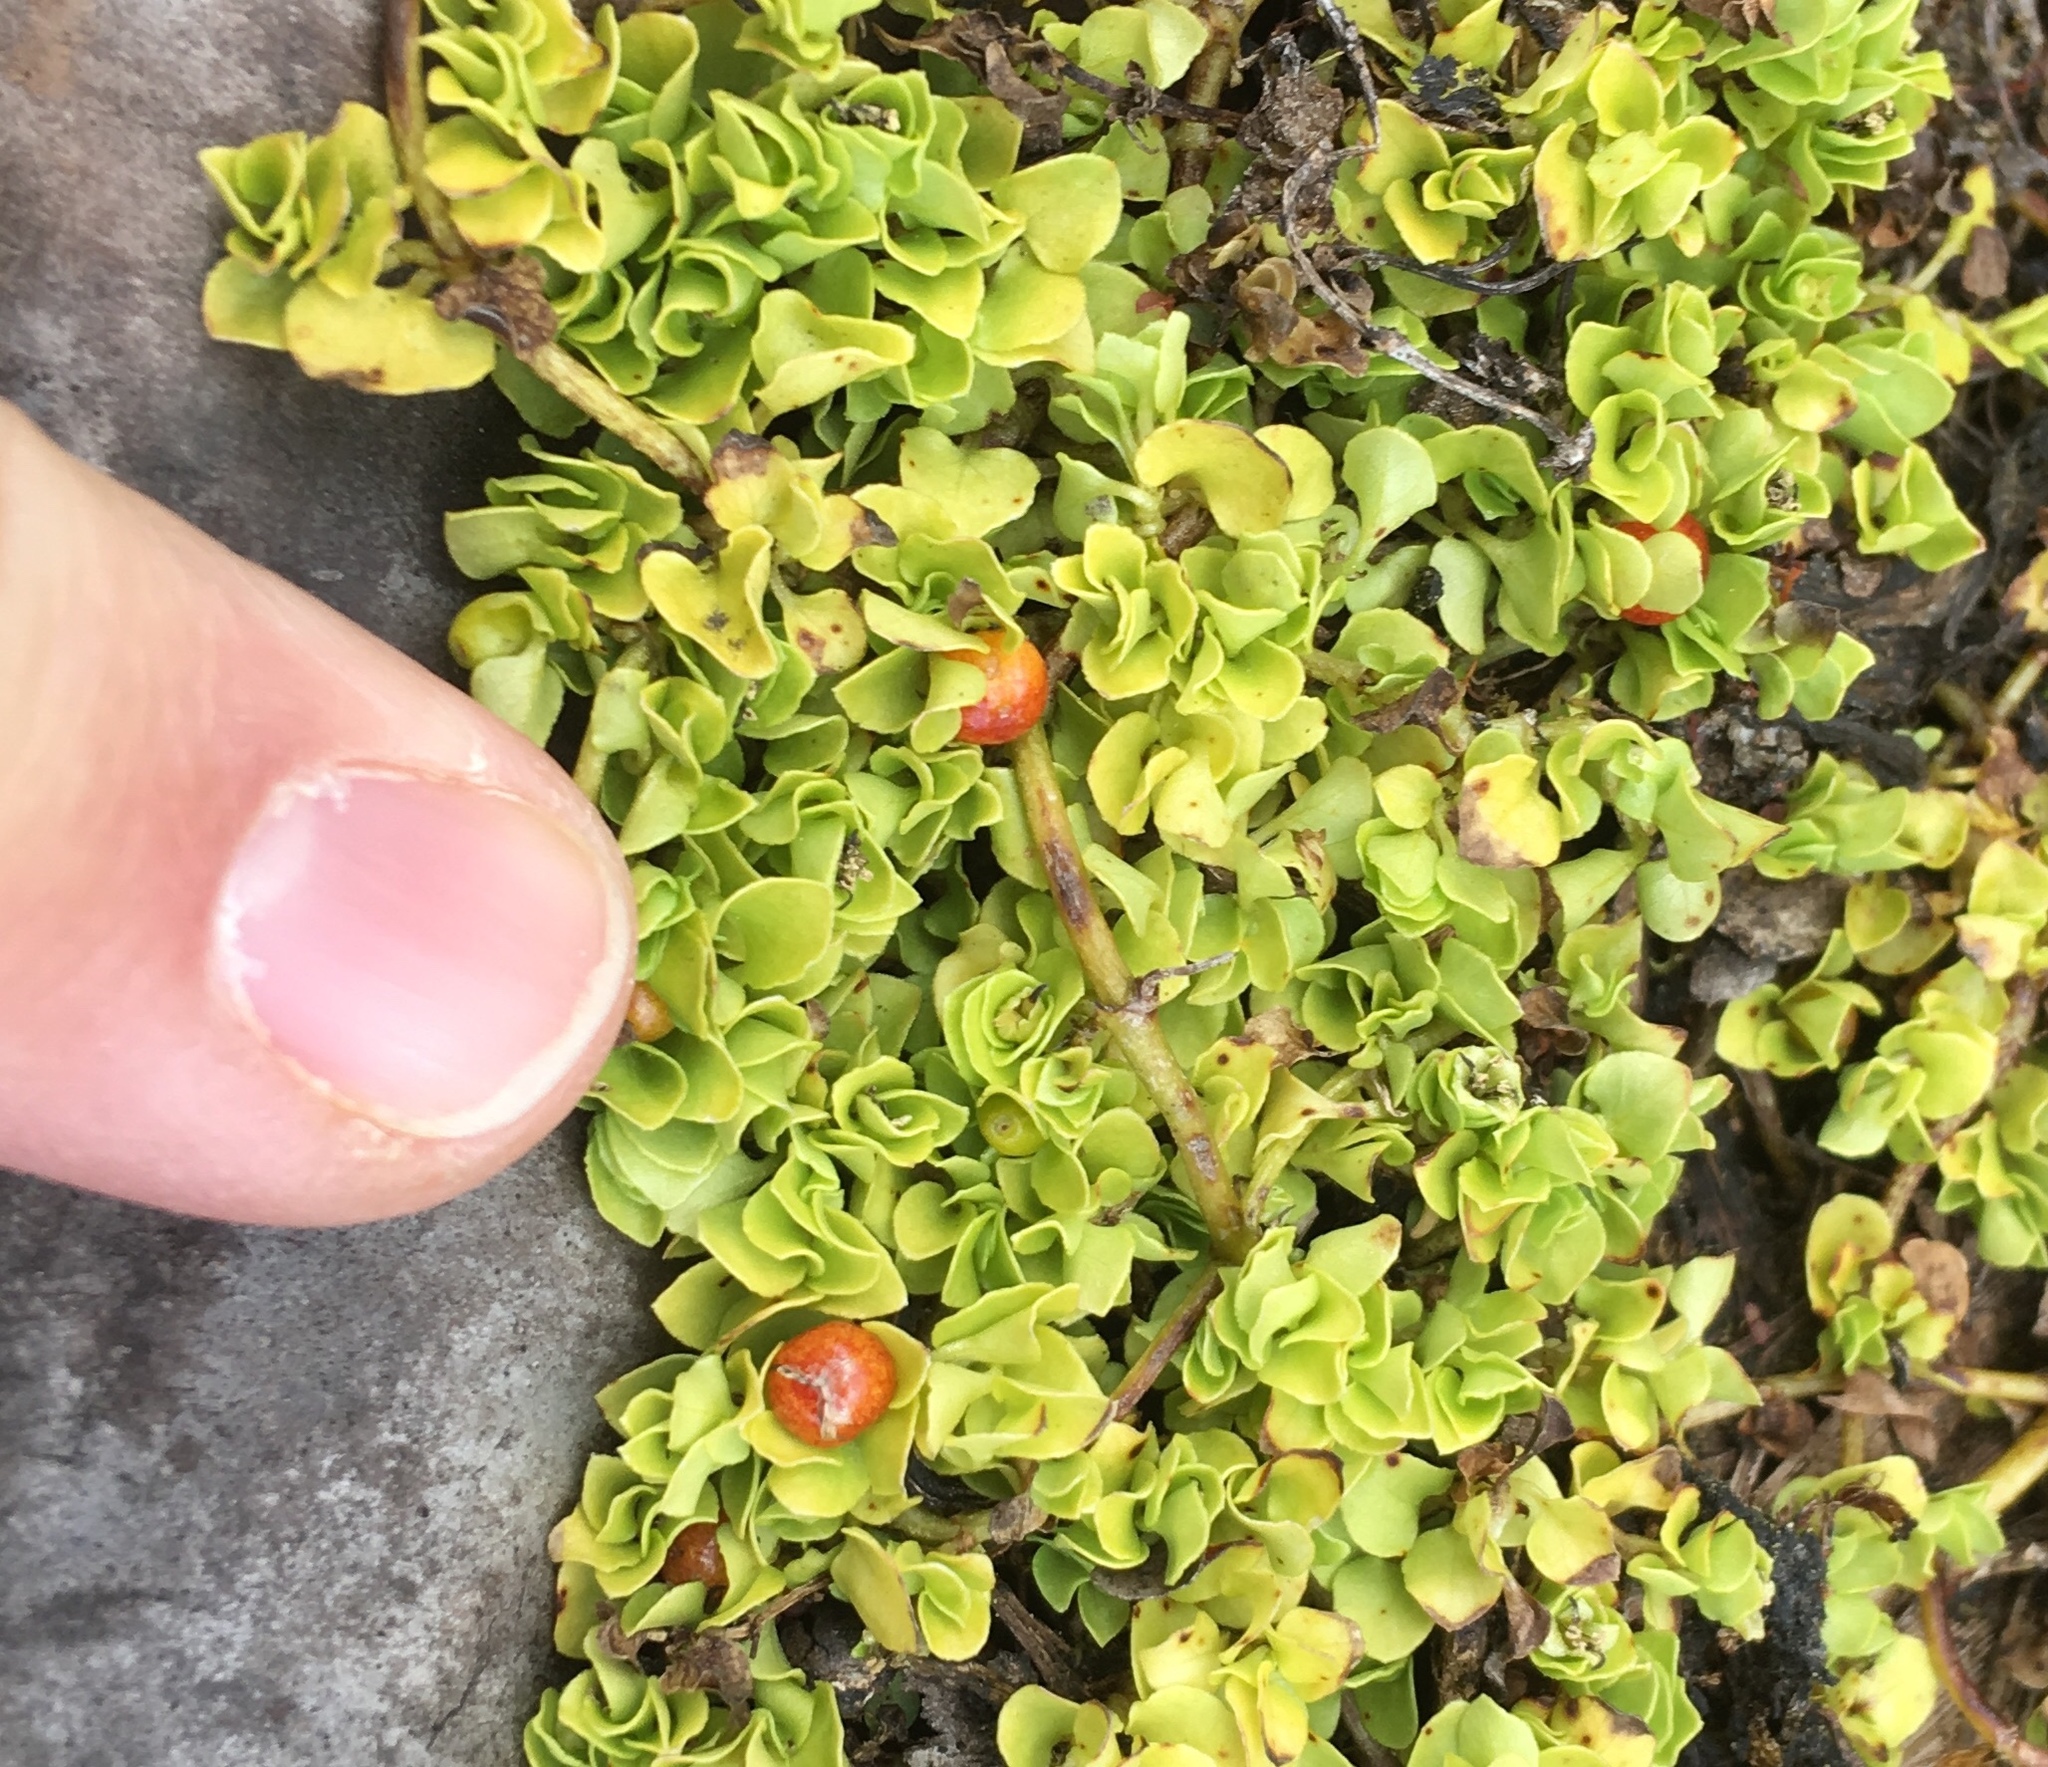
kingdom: Plantae
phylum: Tracheophyta
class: Magnoliopsida
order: Gentianales
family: Rubiaceae
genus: Nertera
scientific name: Nertera granadensis
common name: Beadplant
